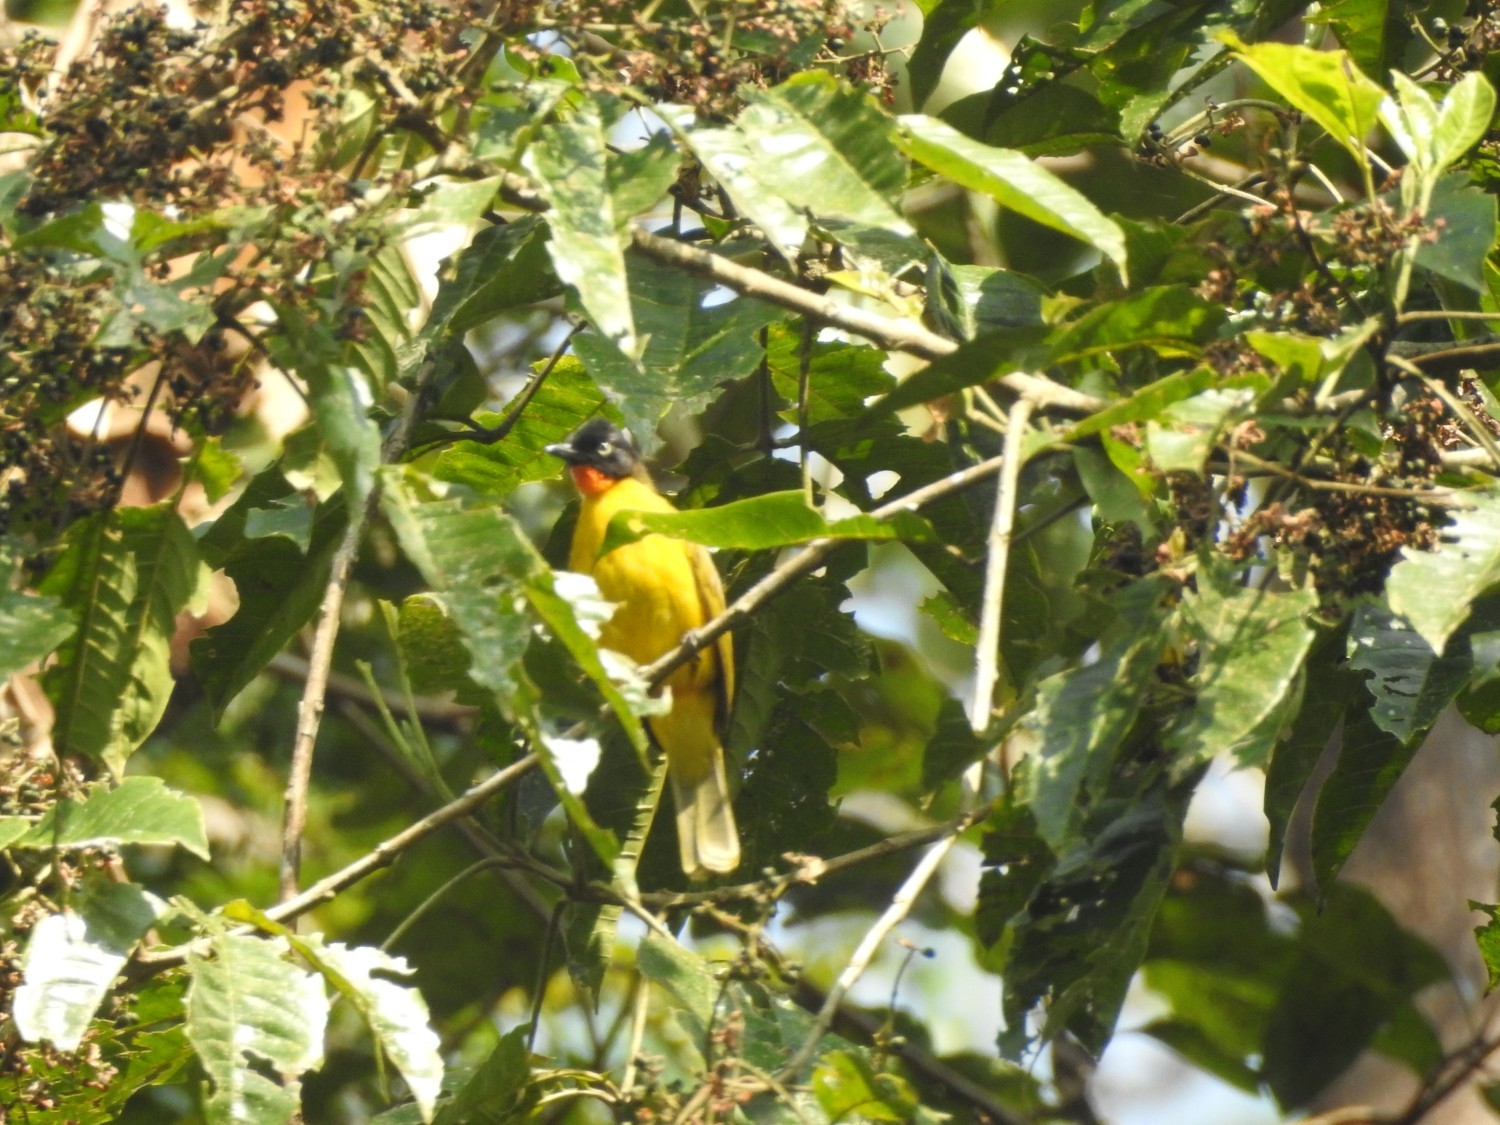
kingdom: Animalia
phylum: Chordata
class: Aves
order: Passeriformes
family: Pycnonotidae
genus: Pycnonotus
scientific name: Pycnonotus gularis
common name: Flame-throated bulbul
